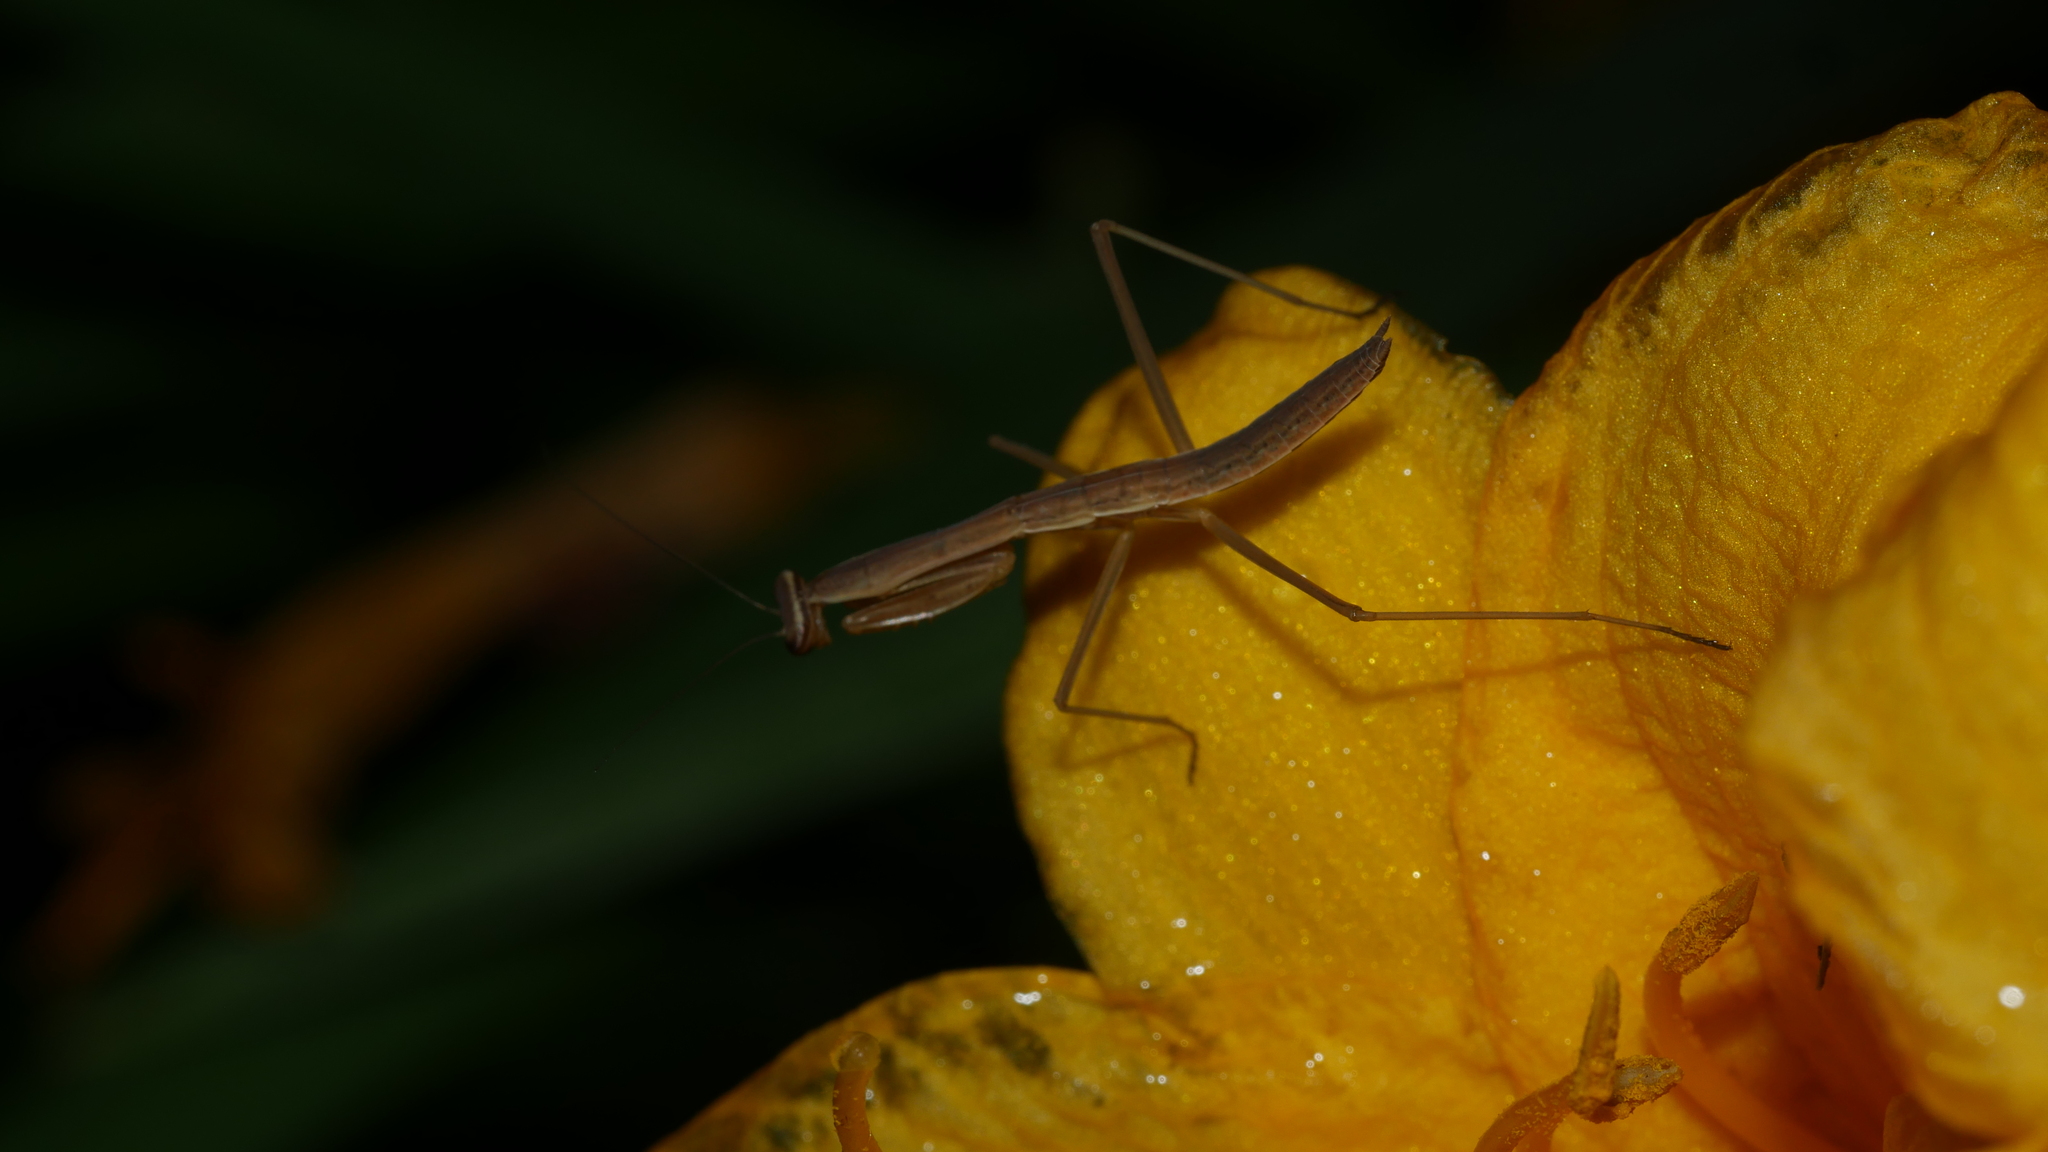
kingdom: Animalia
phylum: Arthropoda
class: Insecta
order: Mantodea
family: Mantidae
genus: Tenodera
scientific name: Tenodera sinensis
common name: Chinese mantis
